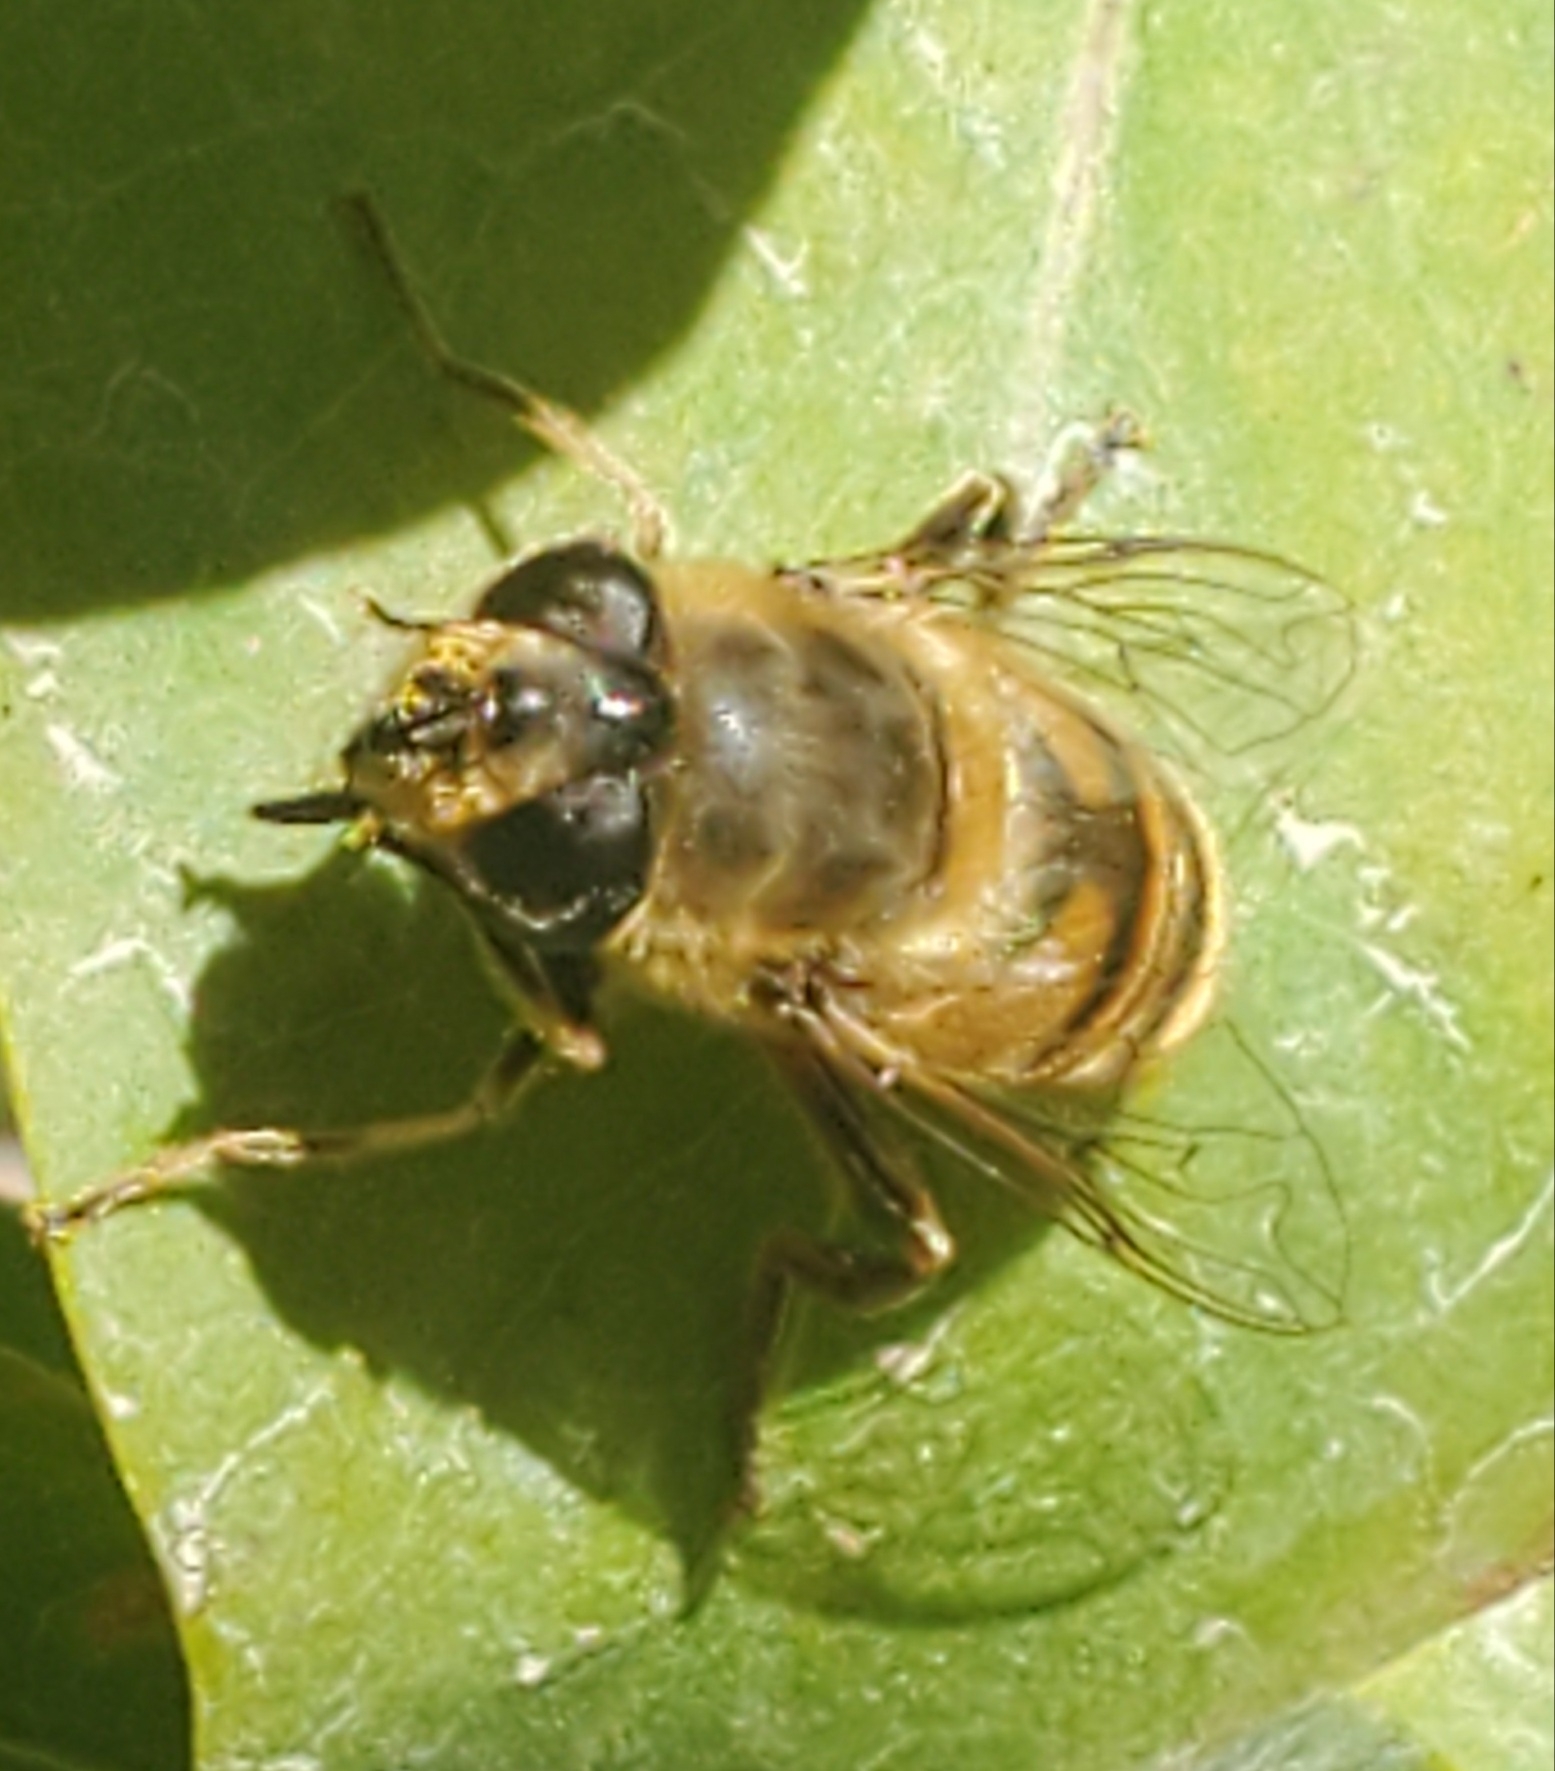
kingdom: Animalia
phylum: Arthropoda
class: Insecta
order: Diptera
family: Syrphidae
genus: Eristalis
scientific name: Eristalis tenax
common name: Drone fly
